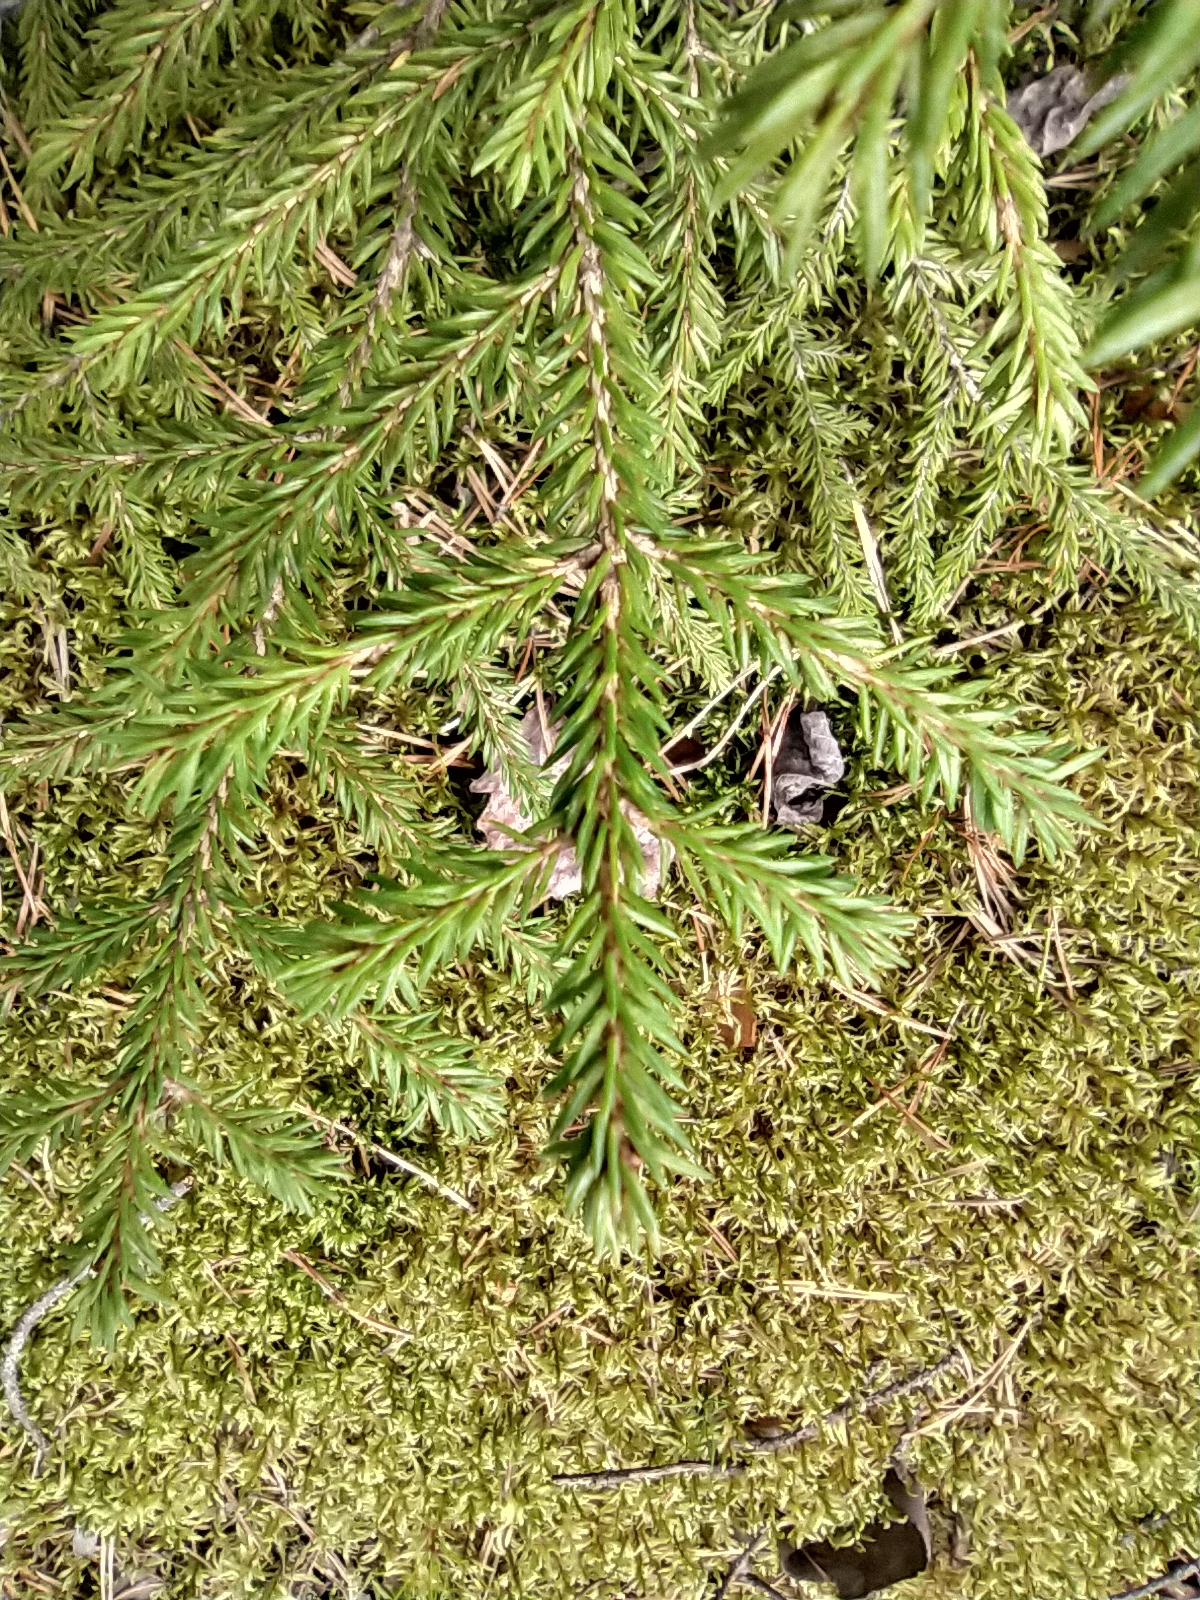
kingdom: Plantae
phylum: Tracheophyta
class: Pinopsida
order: Pinales
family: Pinaceae
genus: Picea
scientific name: Picea obovata
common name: Siberian spruce
